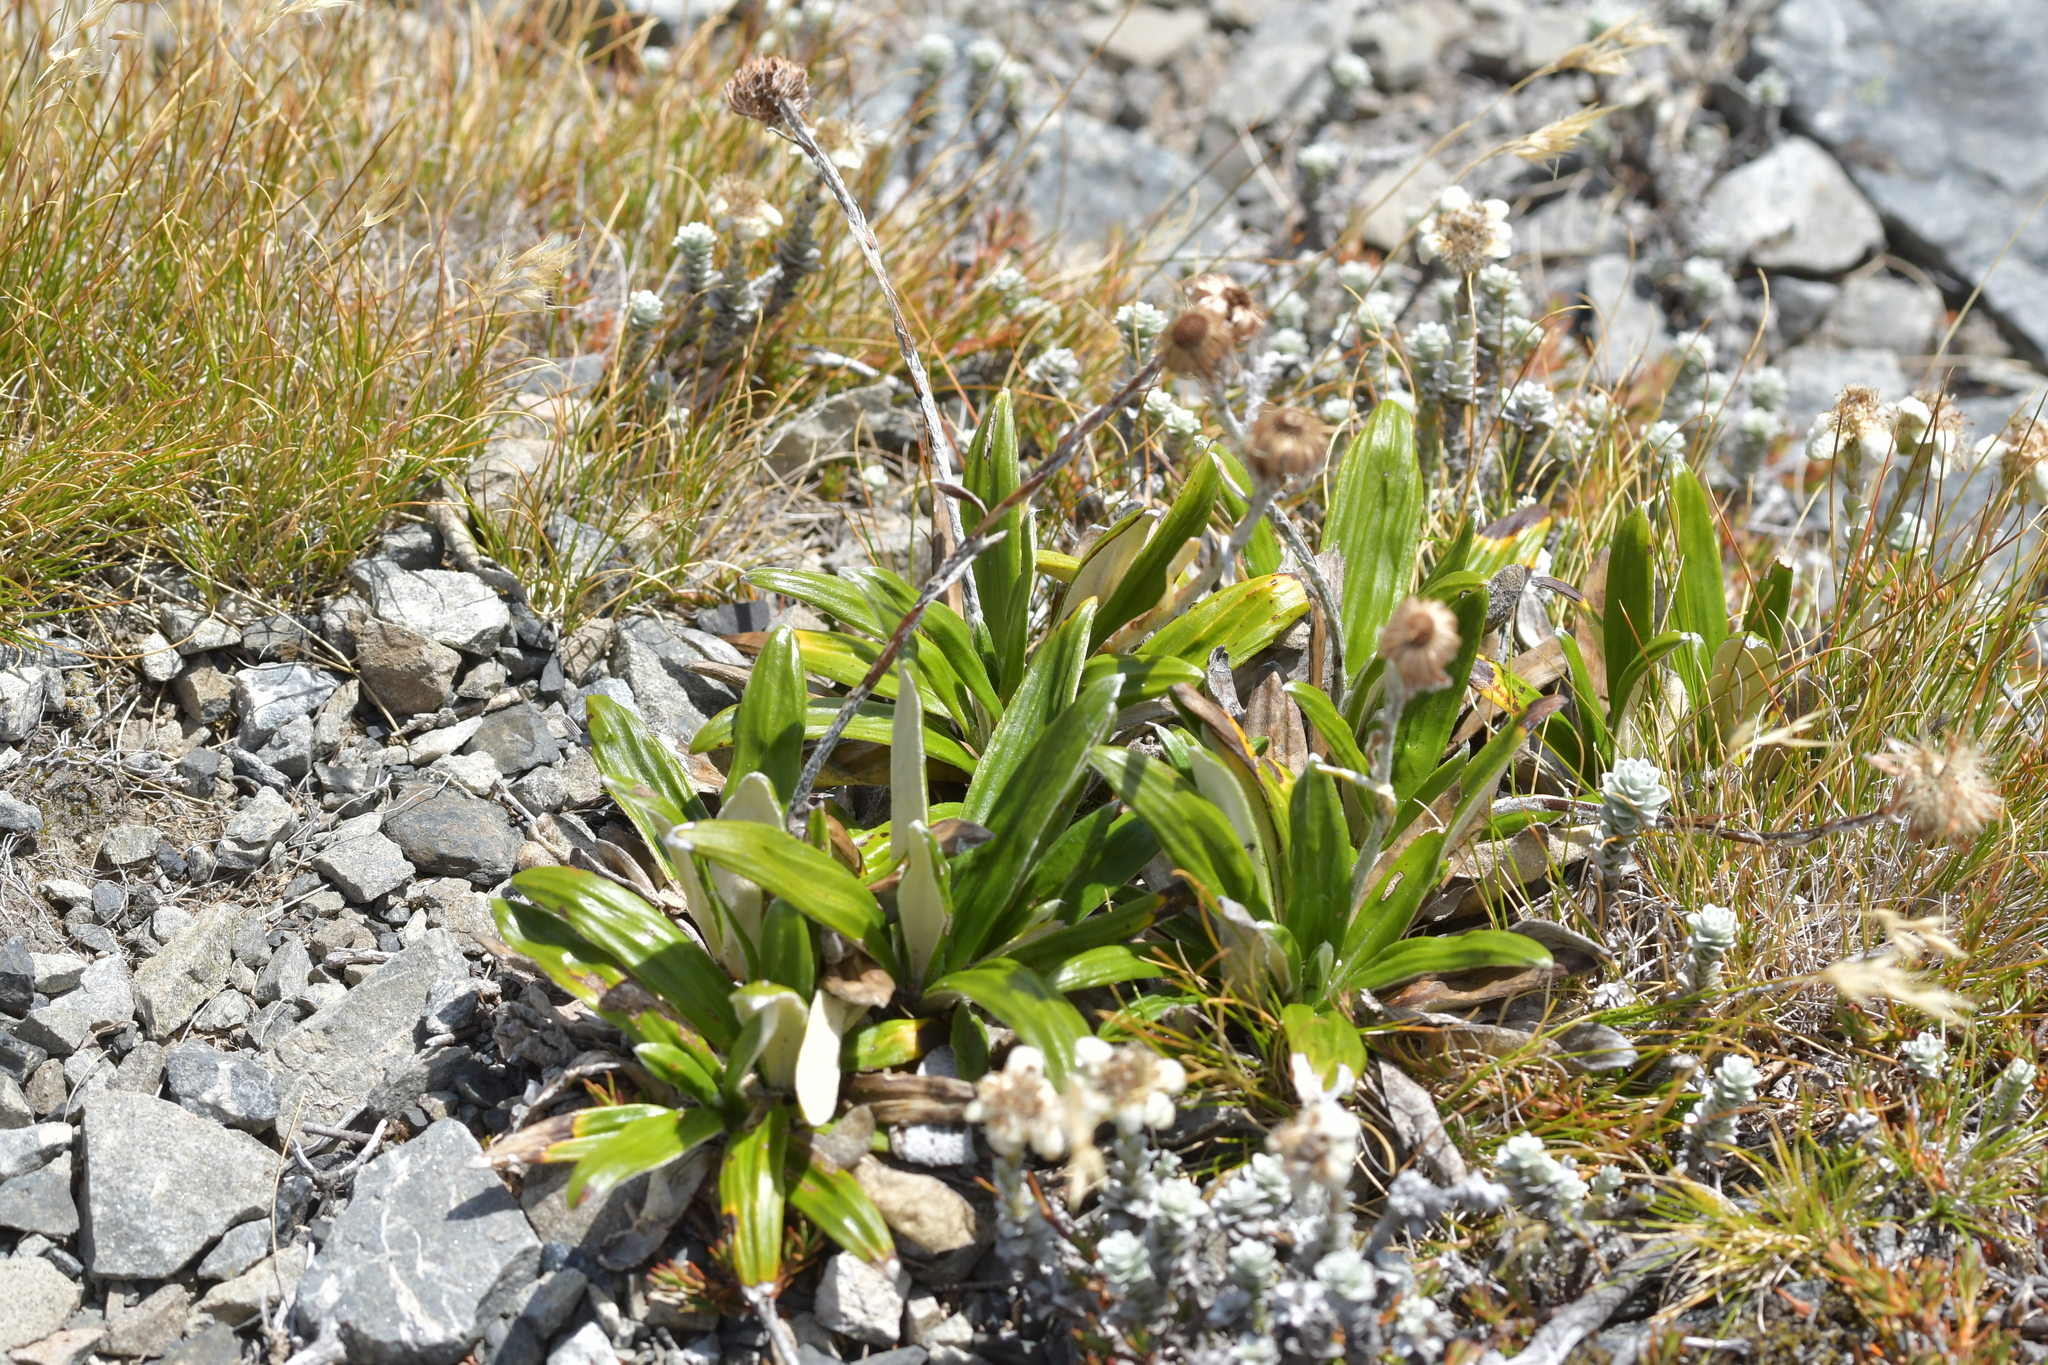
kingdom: Plantae
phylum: Tracheophyta
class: Magnoliopsida
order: Asterales
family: Asteraceae
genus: Celmisia
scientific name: Celmisia spectabilis
